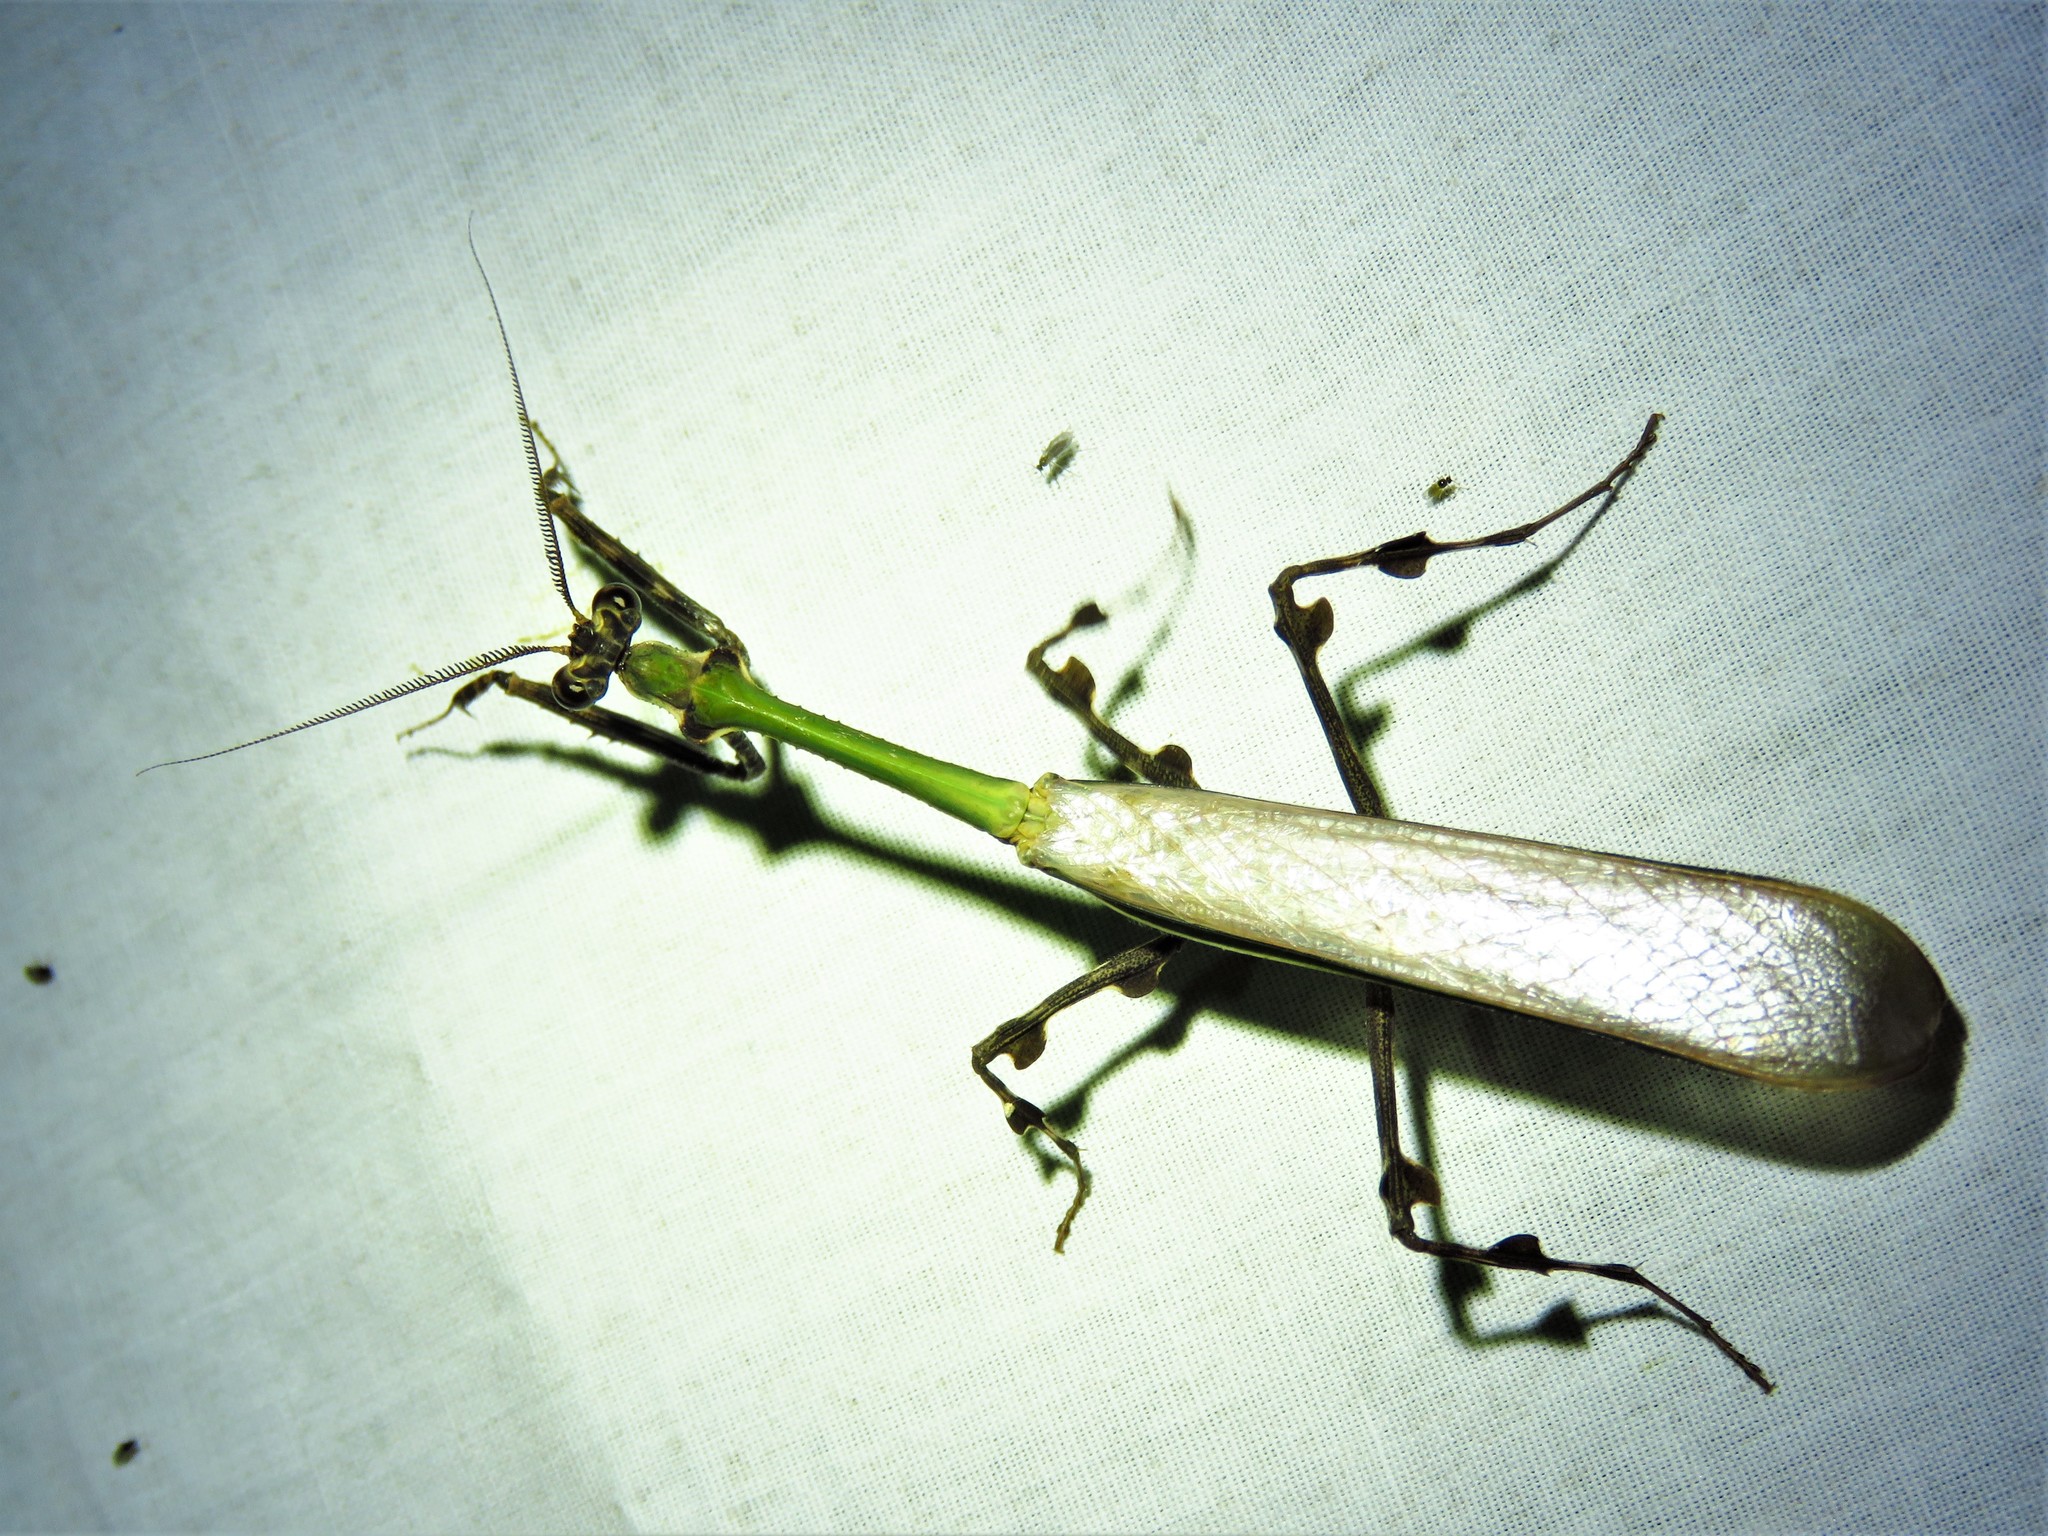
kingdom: Animalia
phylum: Arthropoda
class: Insecta
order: Mantodea
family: Mantidae
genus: Vates
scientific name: Vates pectinicornis
